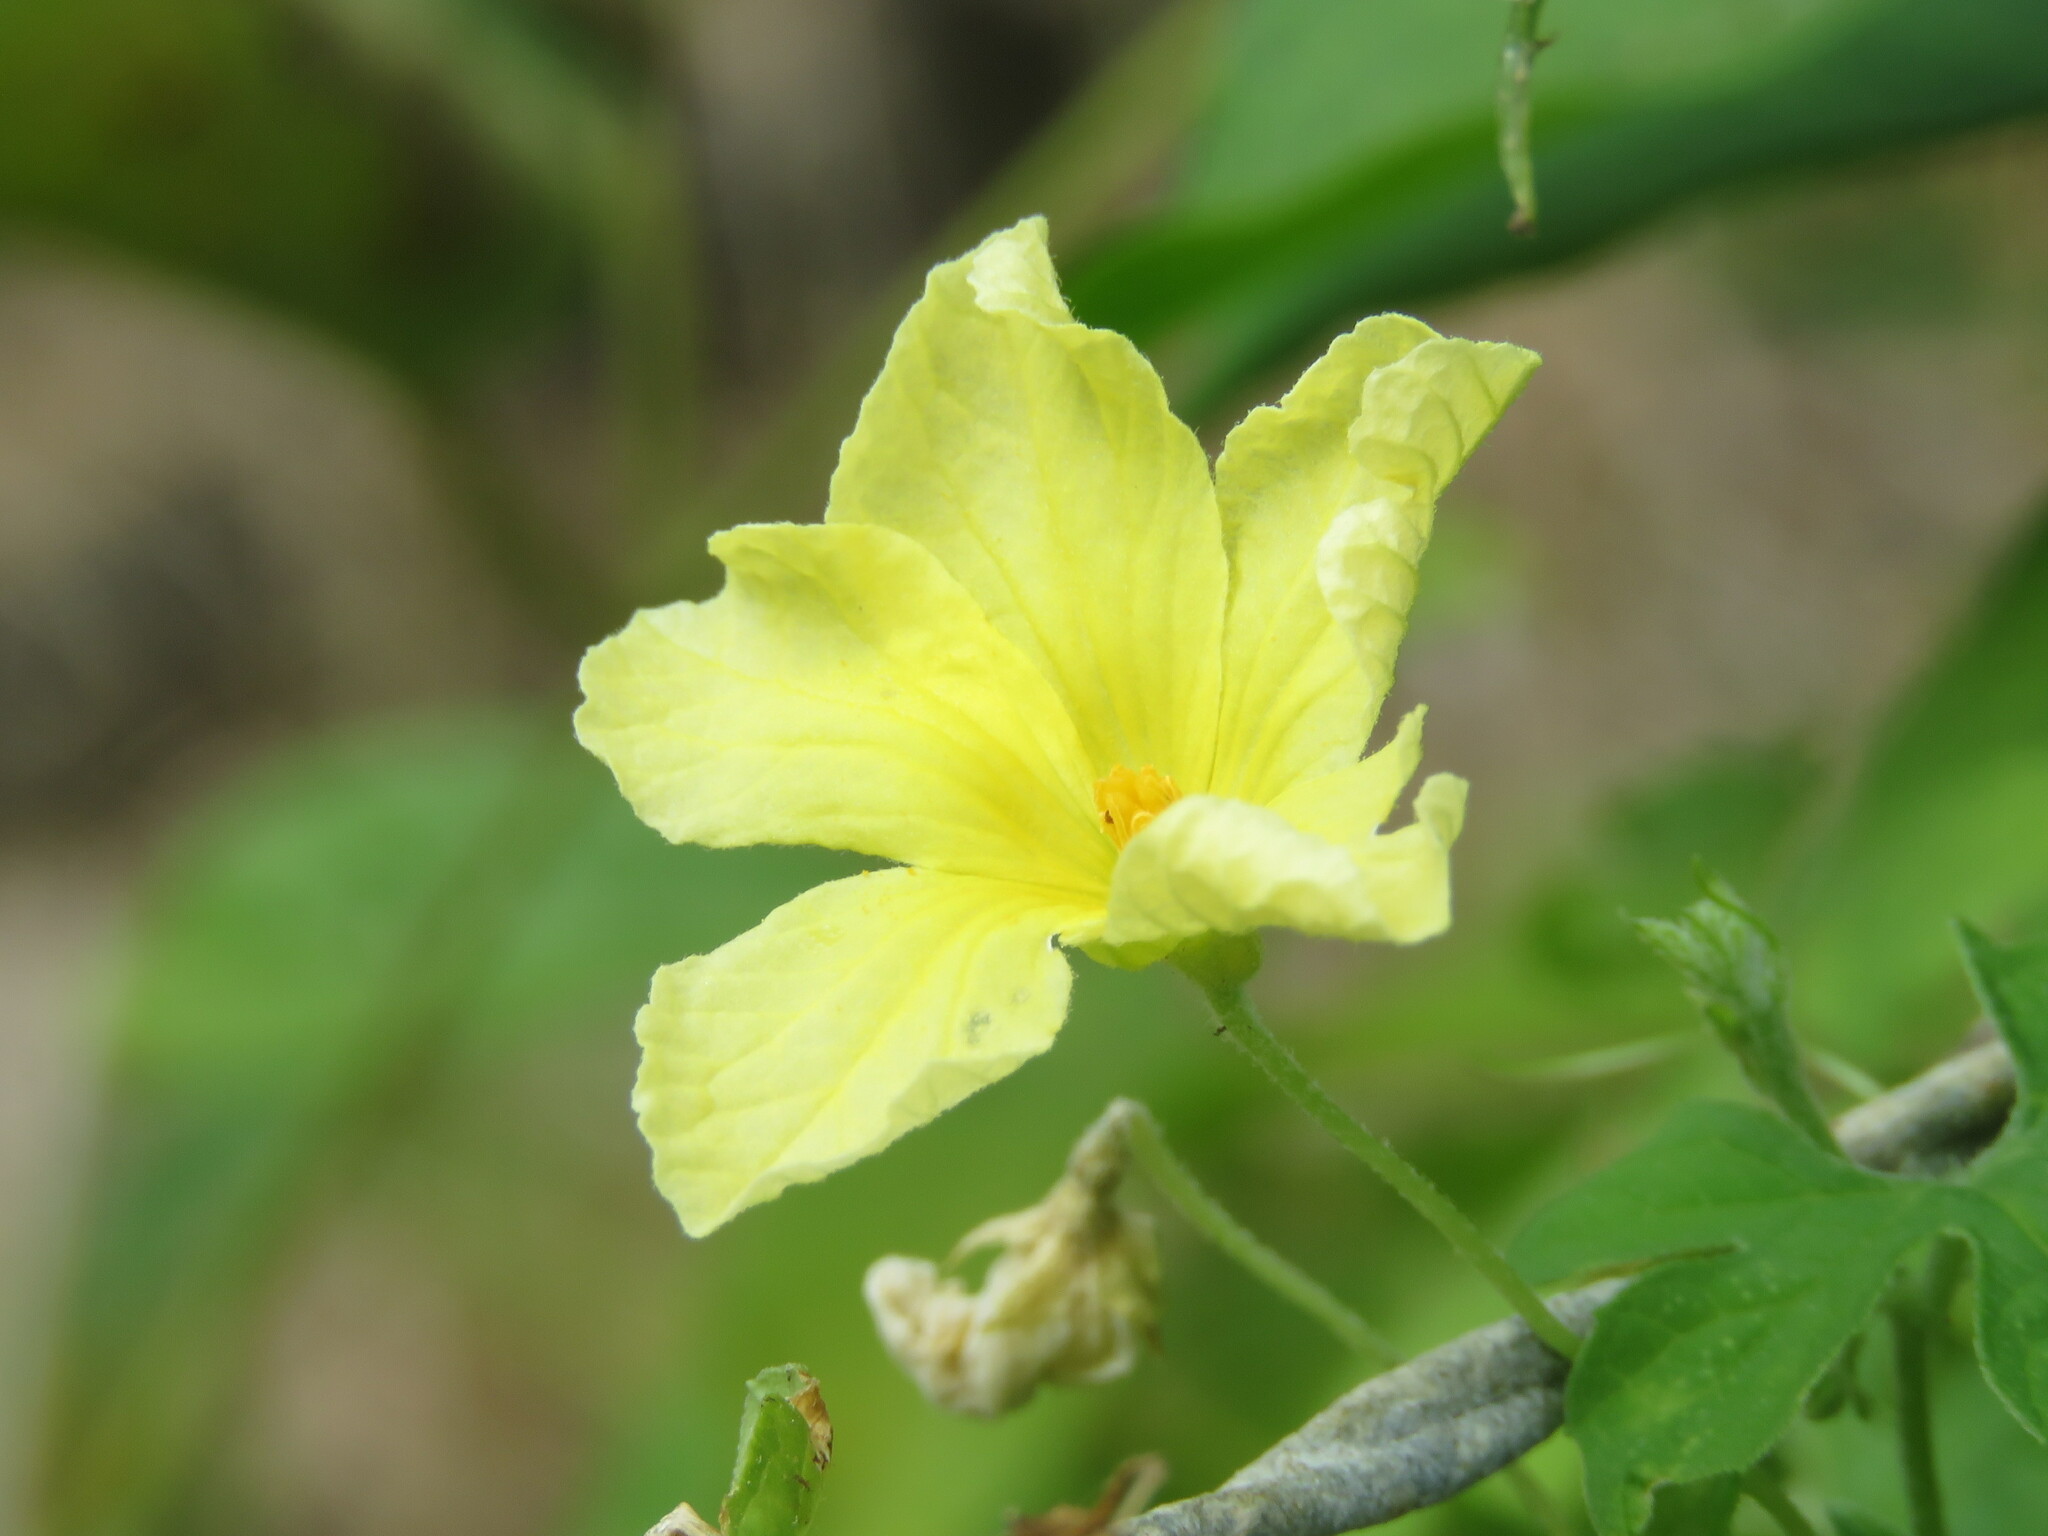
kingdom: Plantae
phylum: Tracheophyta
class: Magnoliopsida
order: Cucurbitales
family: Cucurbitaceae
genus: Momordica
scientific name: Momordica charantia
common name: Balsampear
